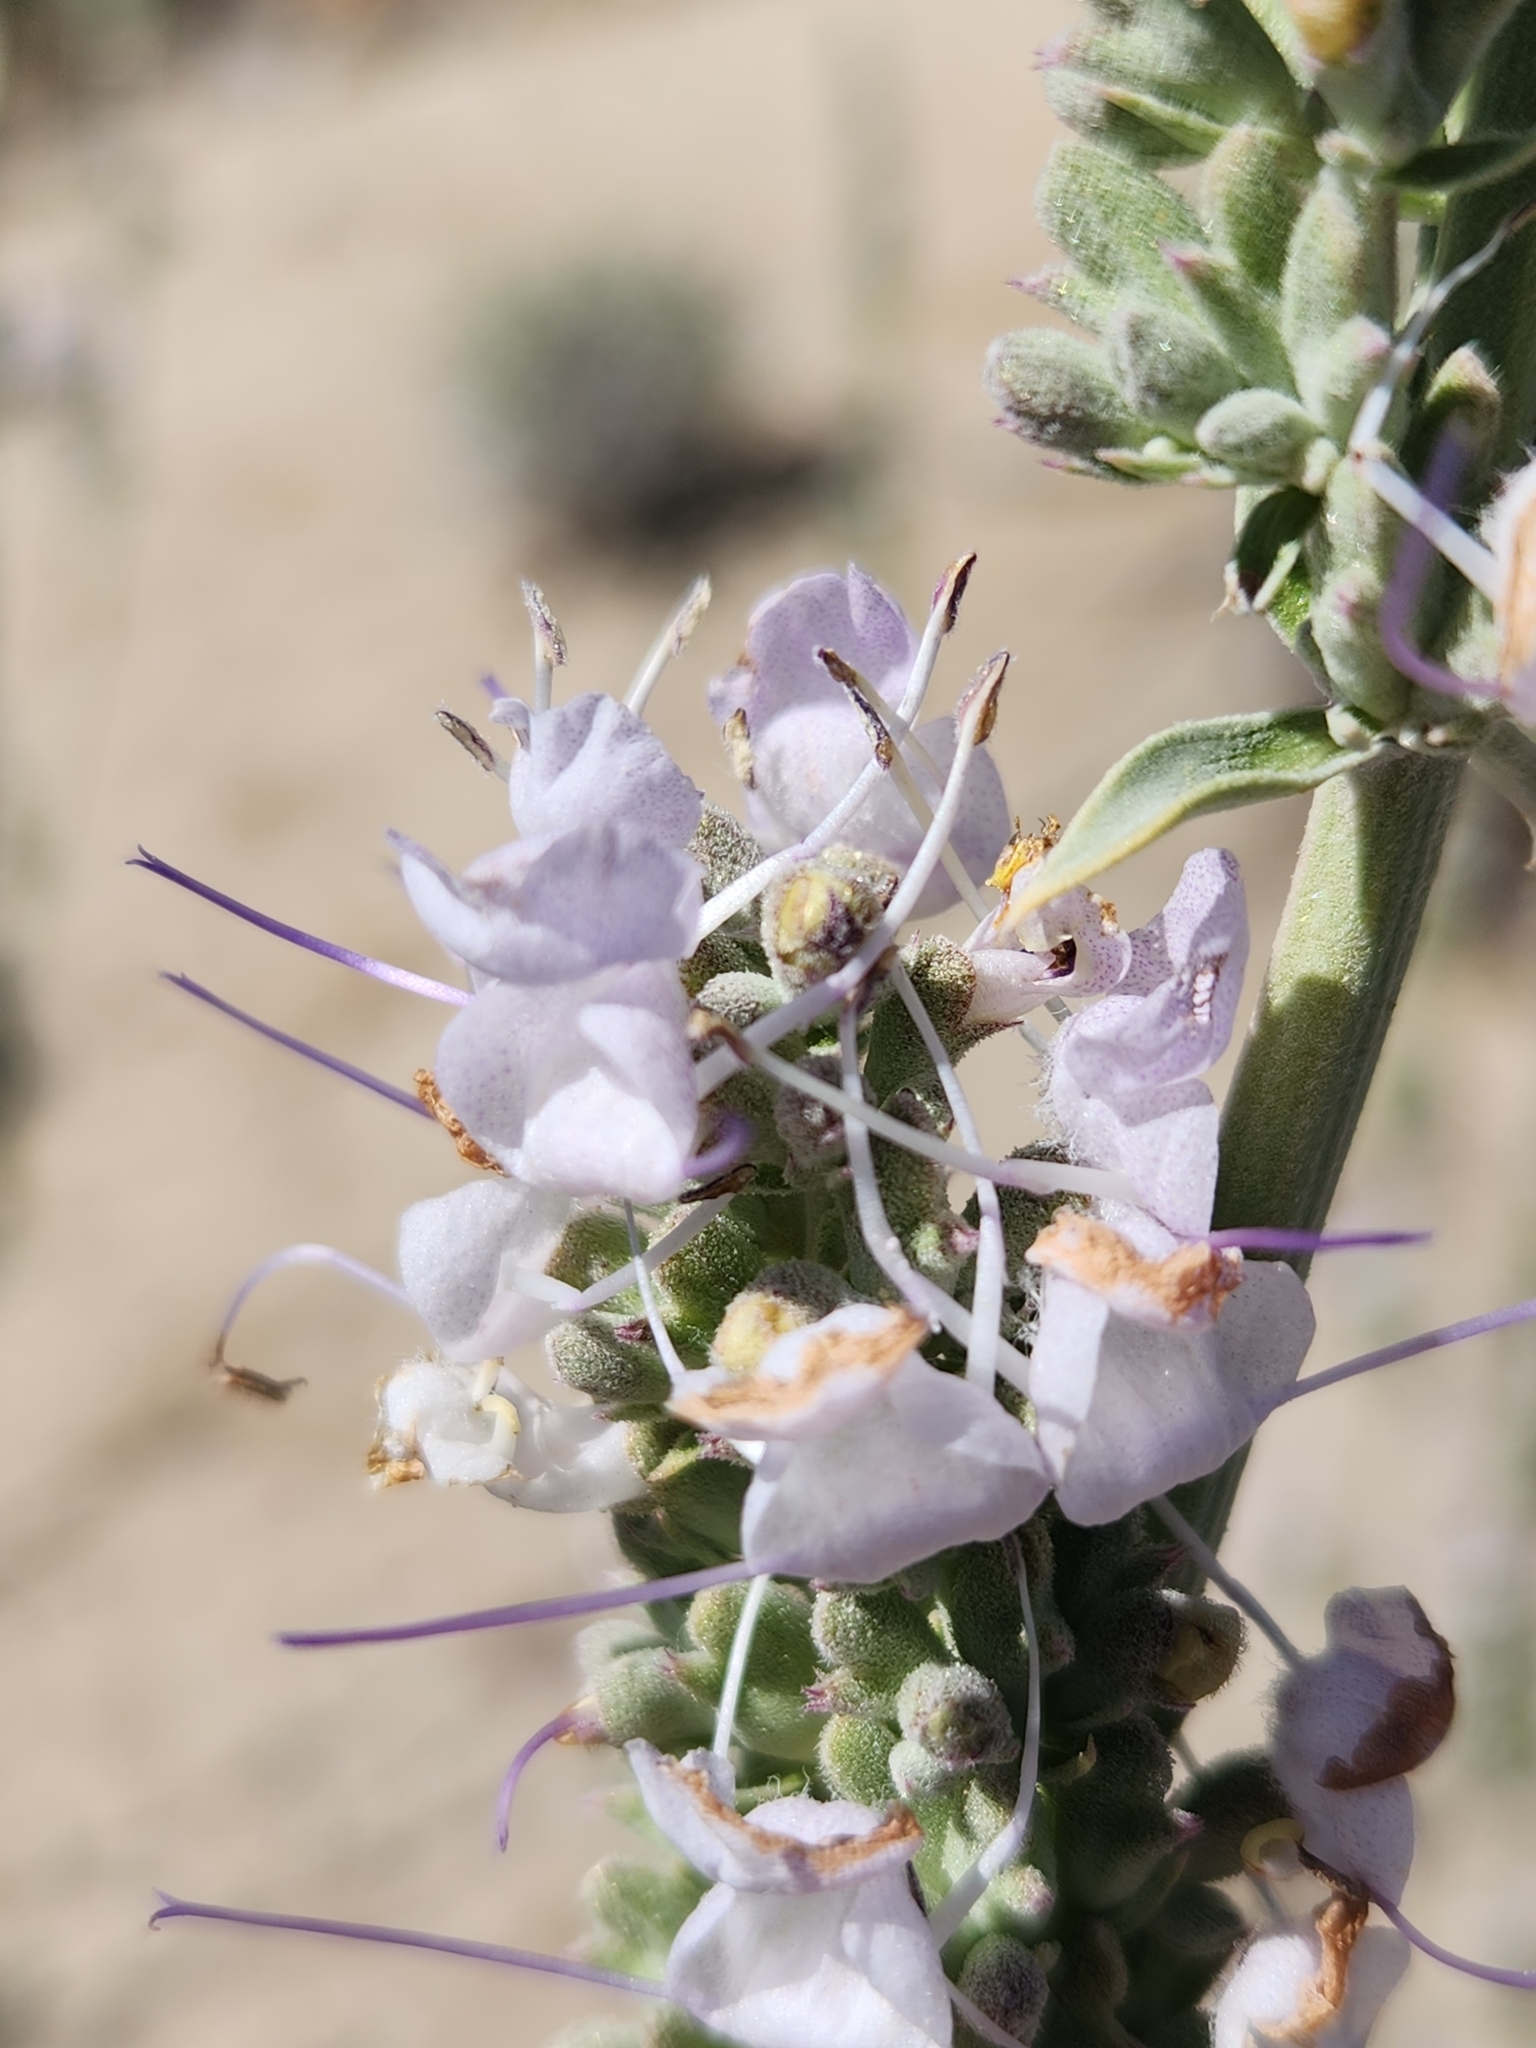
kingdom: Plantae
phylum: Tracheophyta
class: Magnoliopsida
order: Lamiales
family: Lamiaceae
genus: Salvia
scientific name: Salvia apiana
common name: White sage
